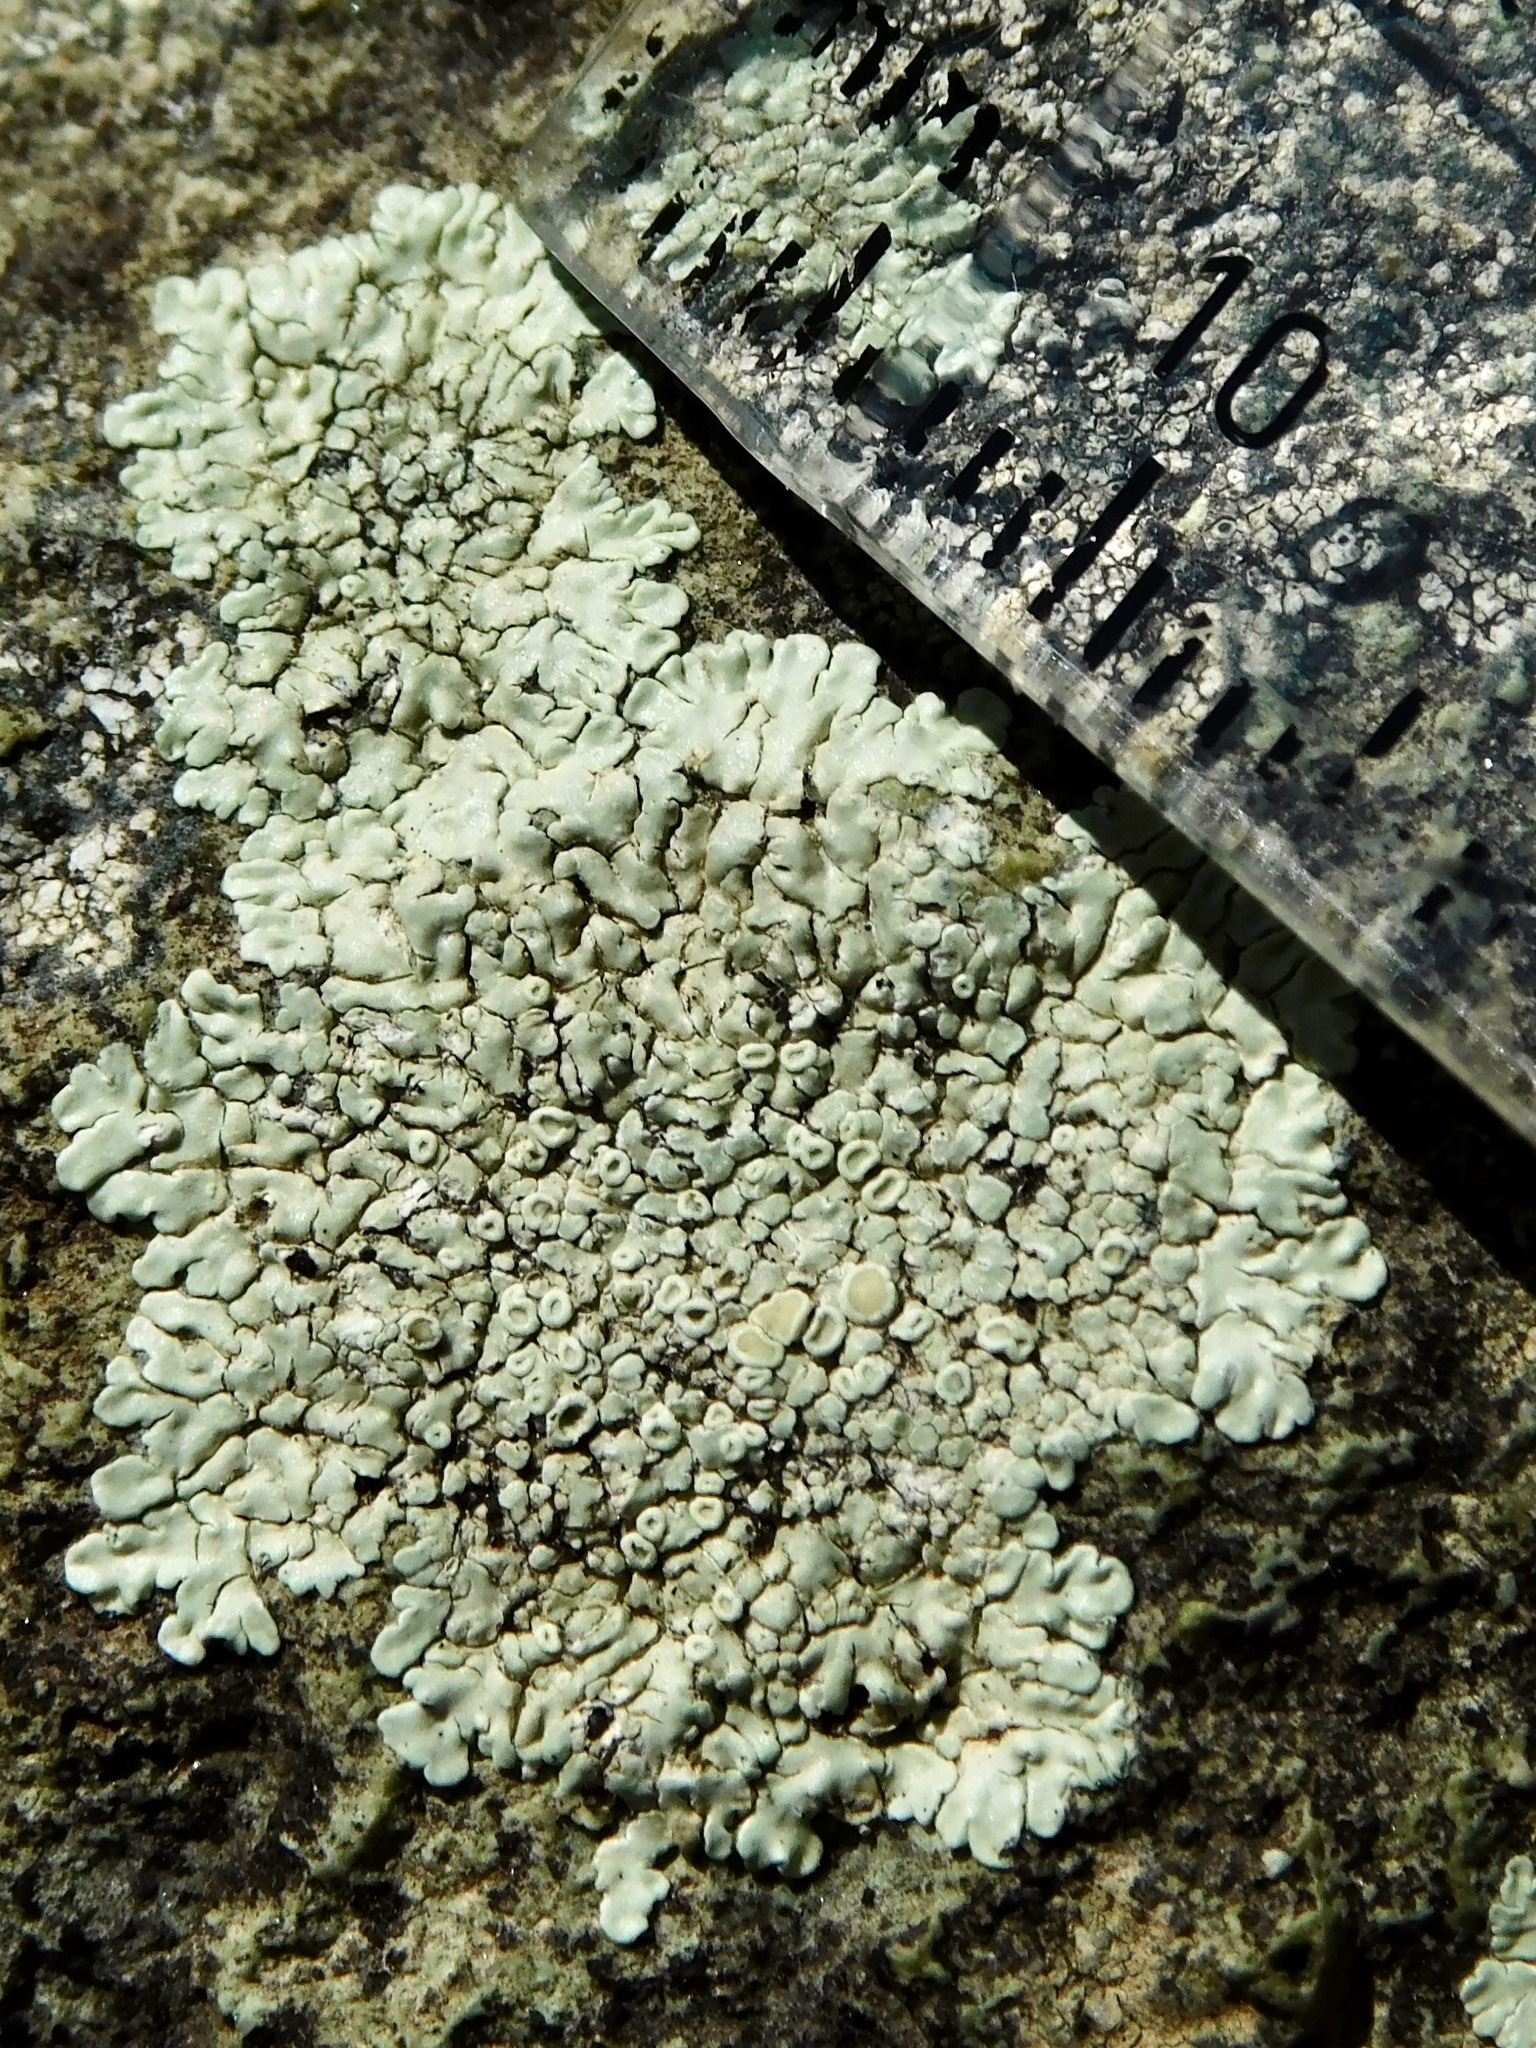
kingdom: Fungi
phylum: Ascomycota
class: Lecanoromycetes
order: Lecanorales
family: Lecanoraceae
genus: Protoparmeliopsis
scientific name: Protoparmeliopsis muralis
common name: Stonewall rim lichen
